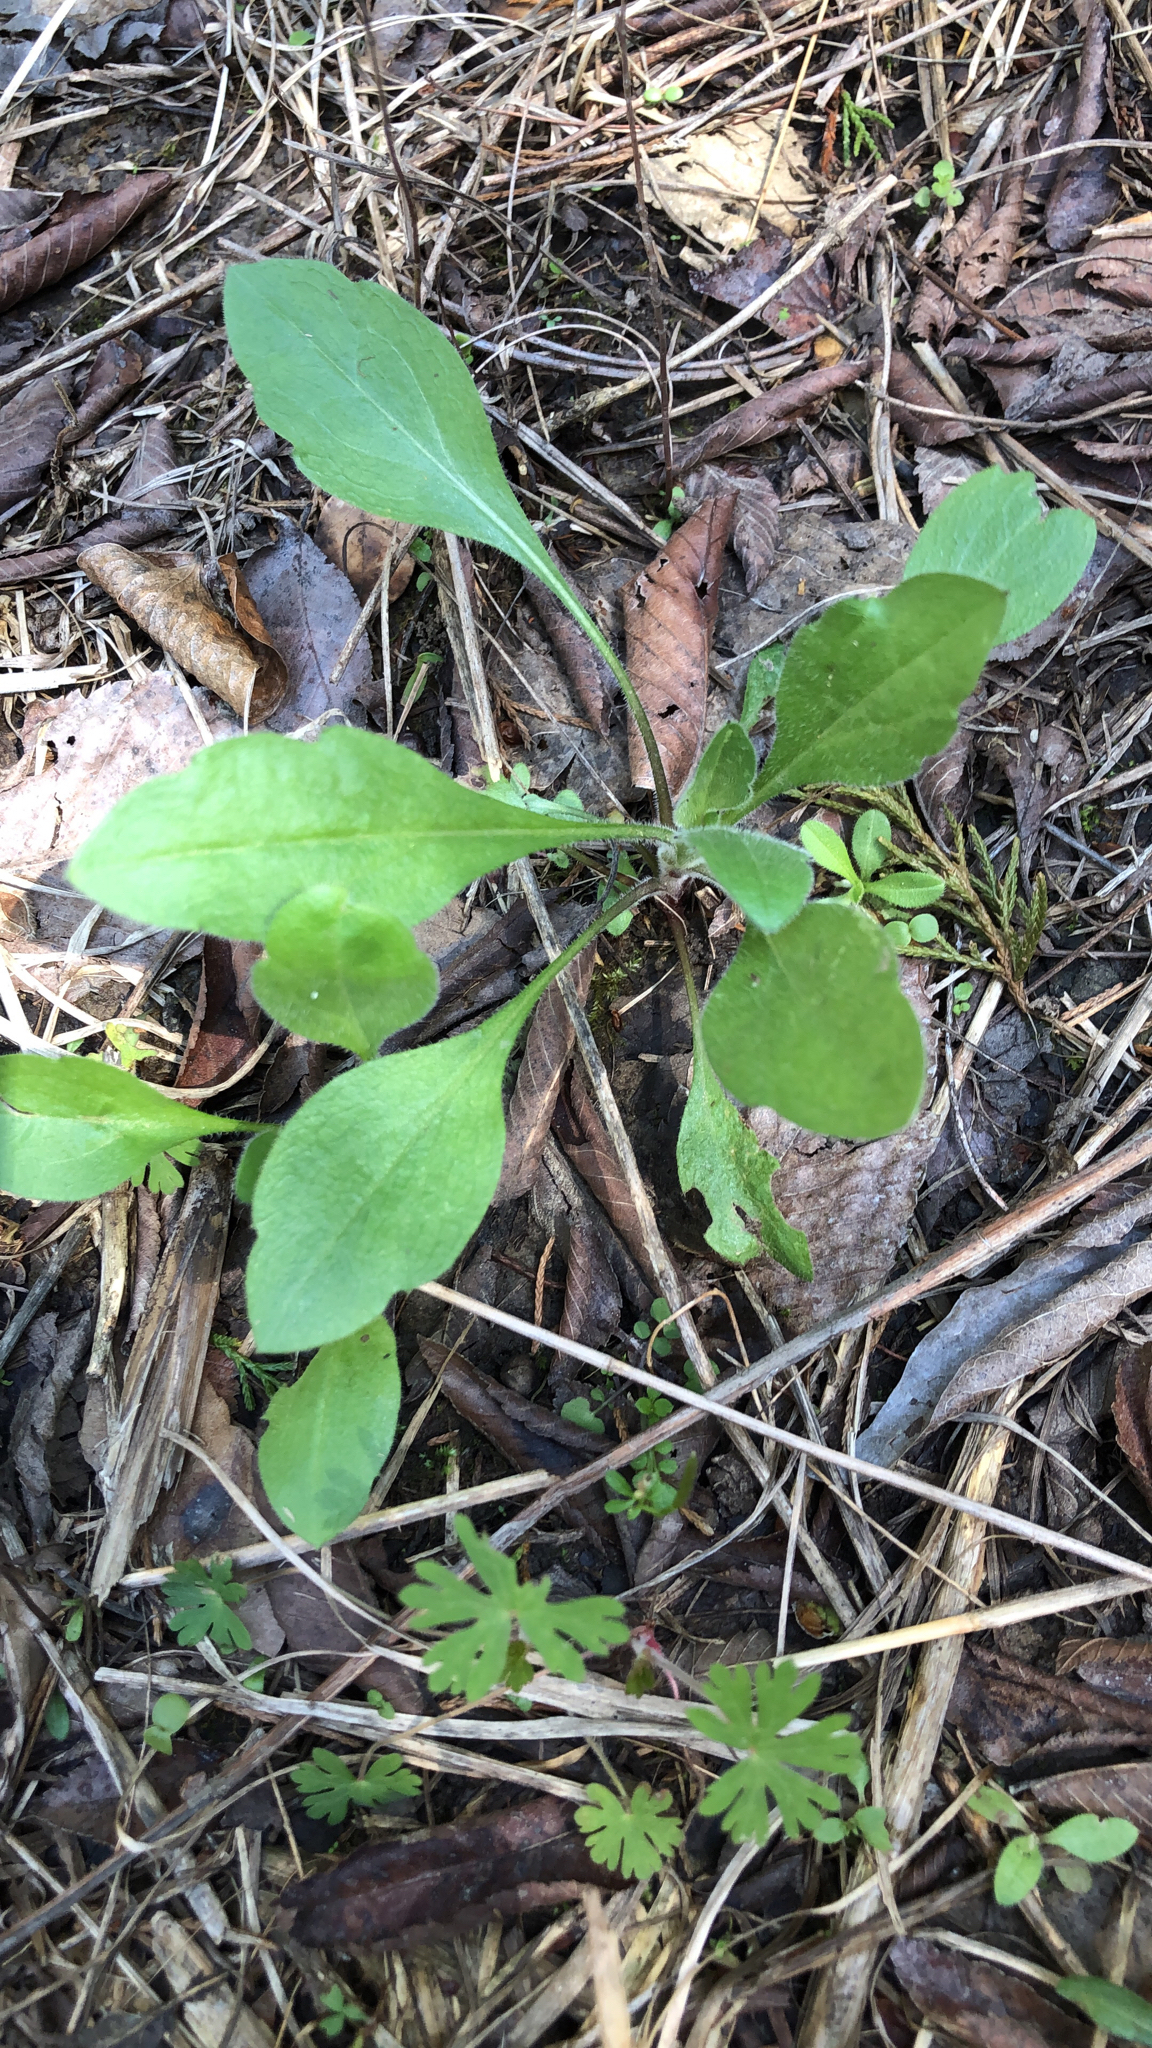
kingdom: Plantae
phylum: Tracheophyta
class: Magnoliopsida
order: Asterales
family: Asteraceae
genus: Erigeron
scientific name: Erigeron strigosus
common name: Common eastern fleabane
